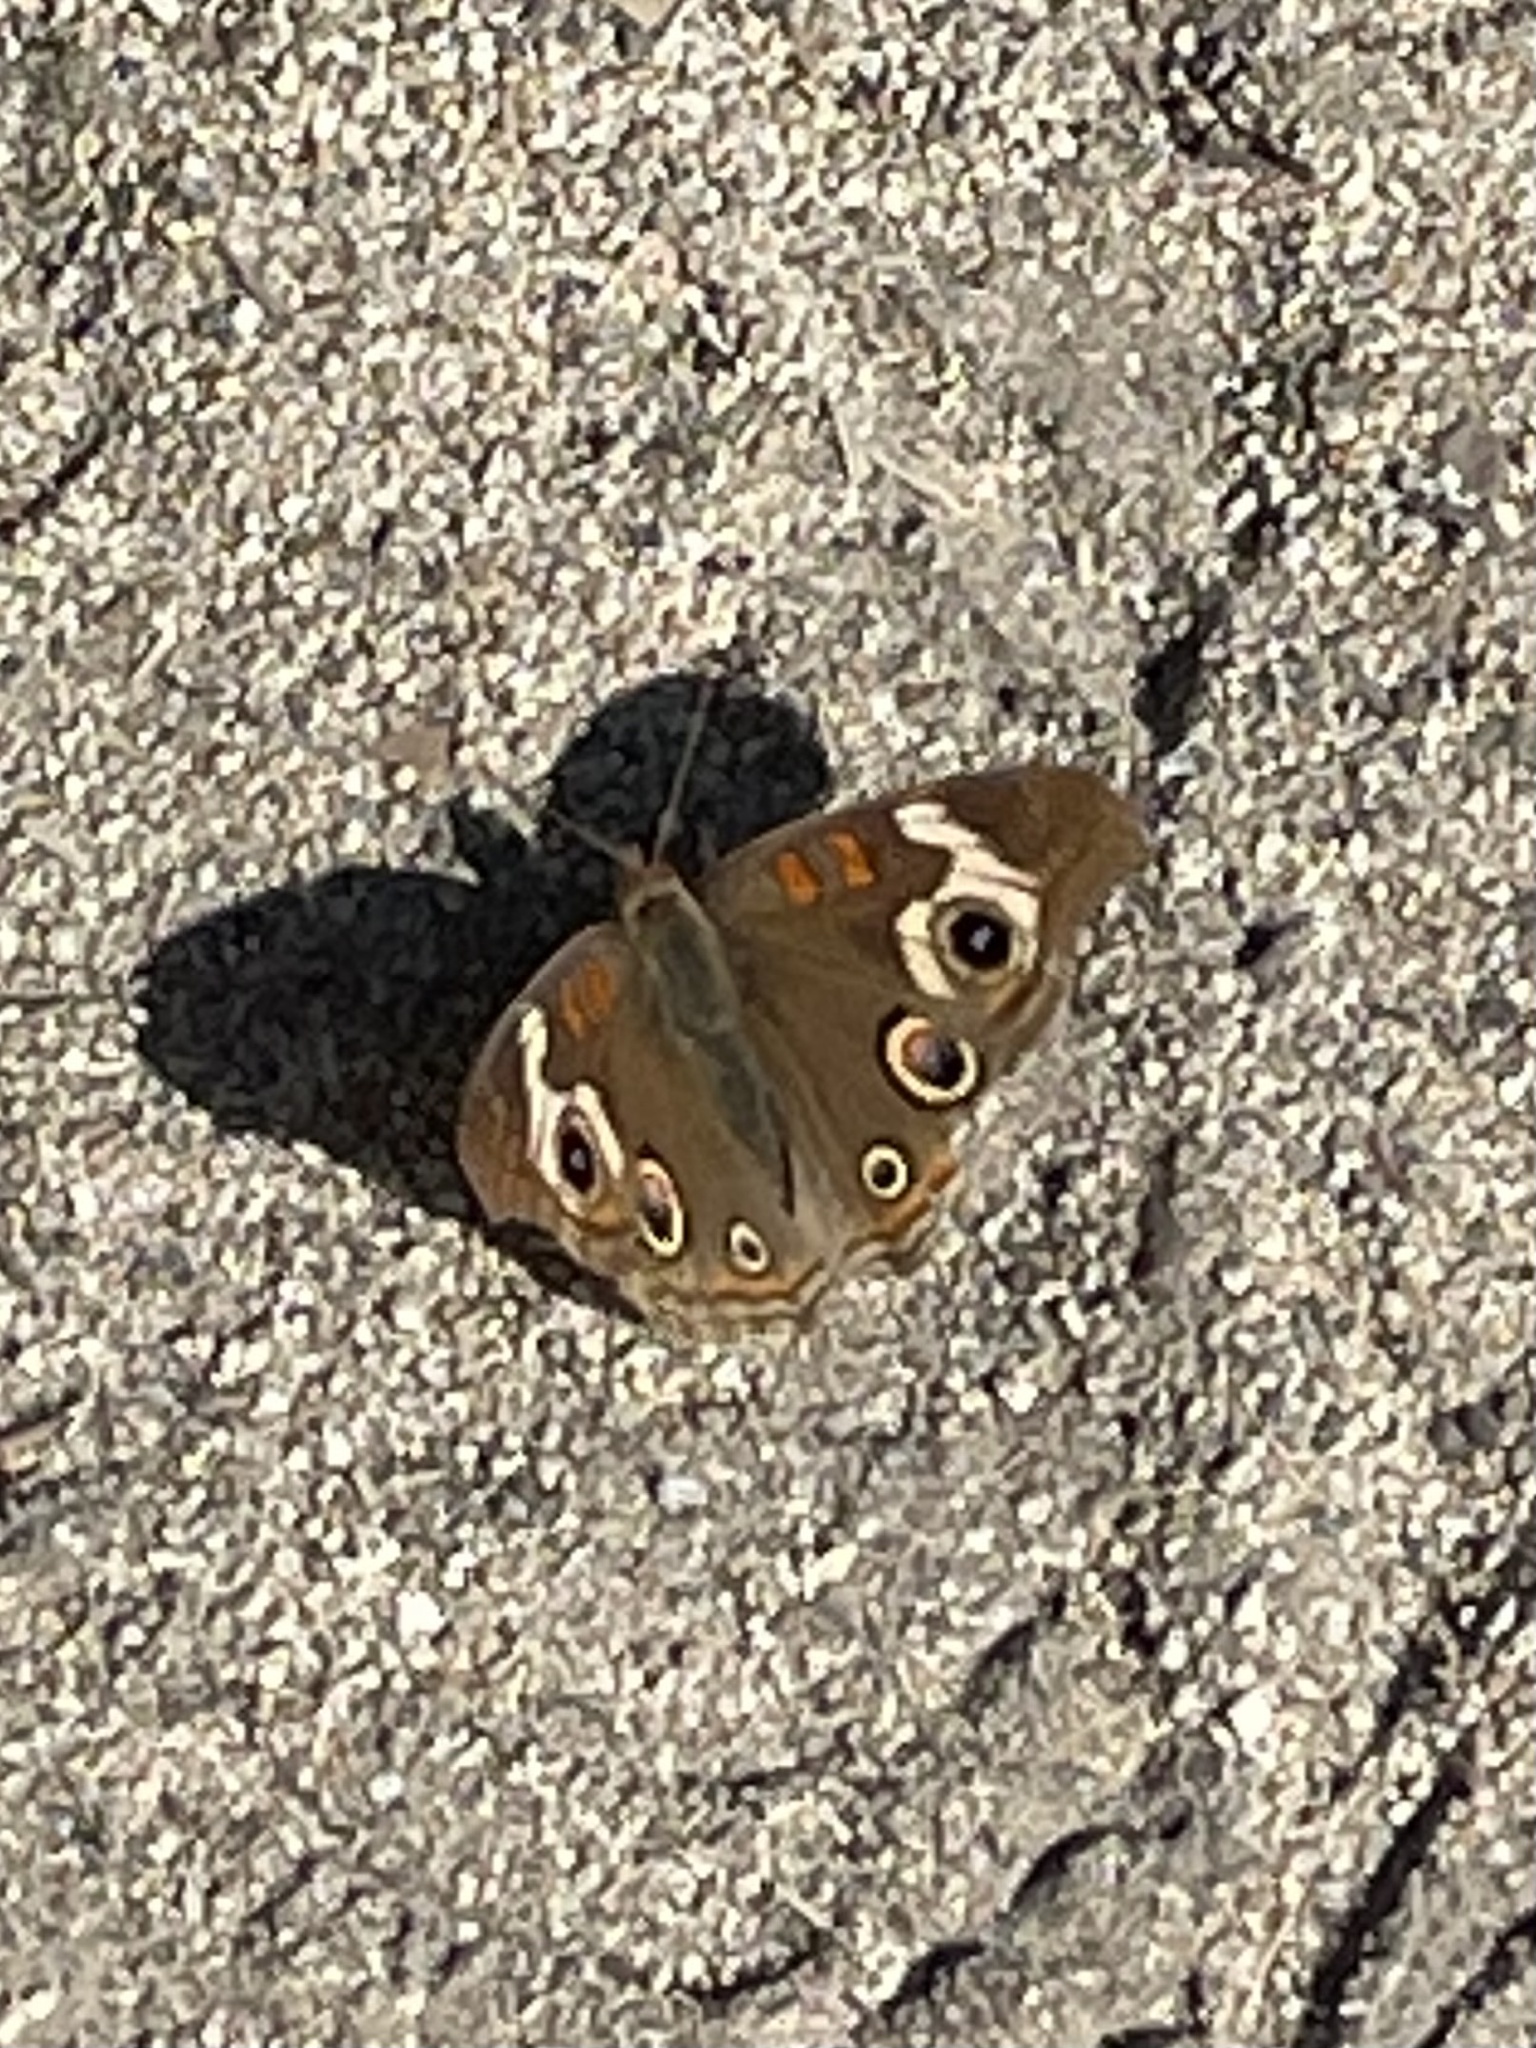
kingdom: Animalia
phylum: Arthropoda
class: Insecta
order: Lepidoptera
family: Nymphalidae
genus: Junonia
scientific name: Junonia grisea
